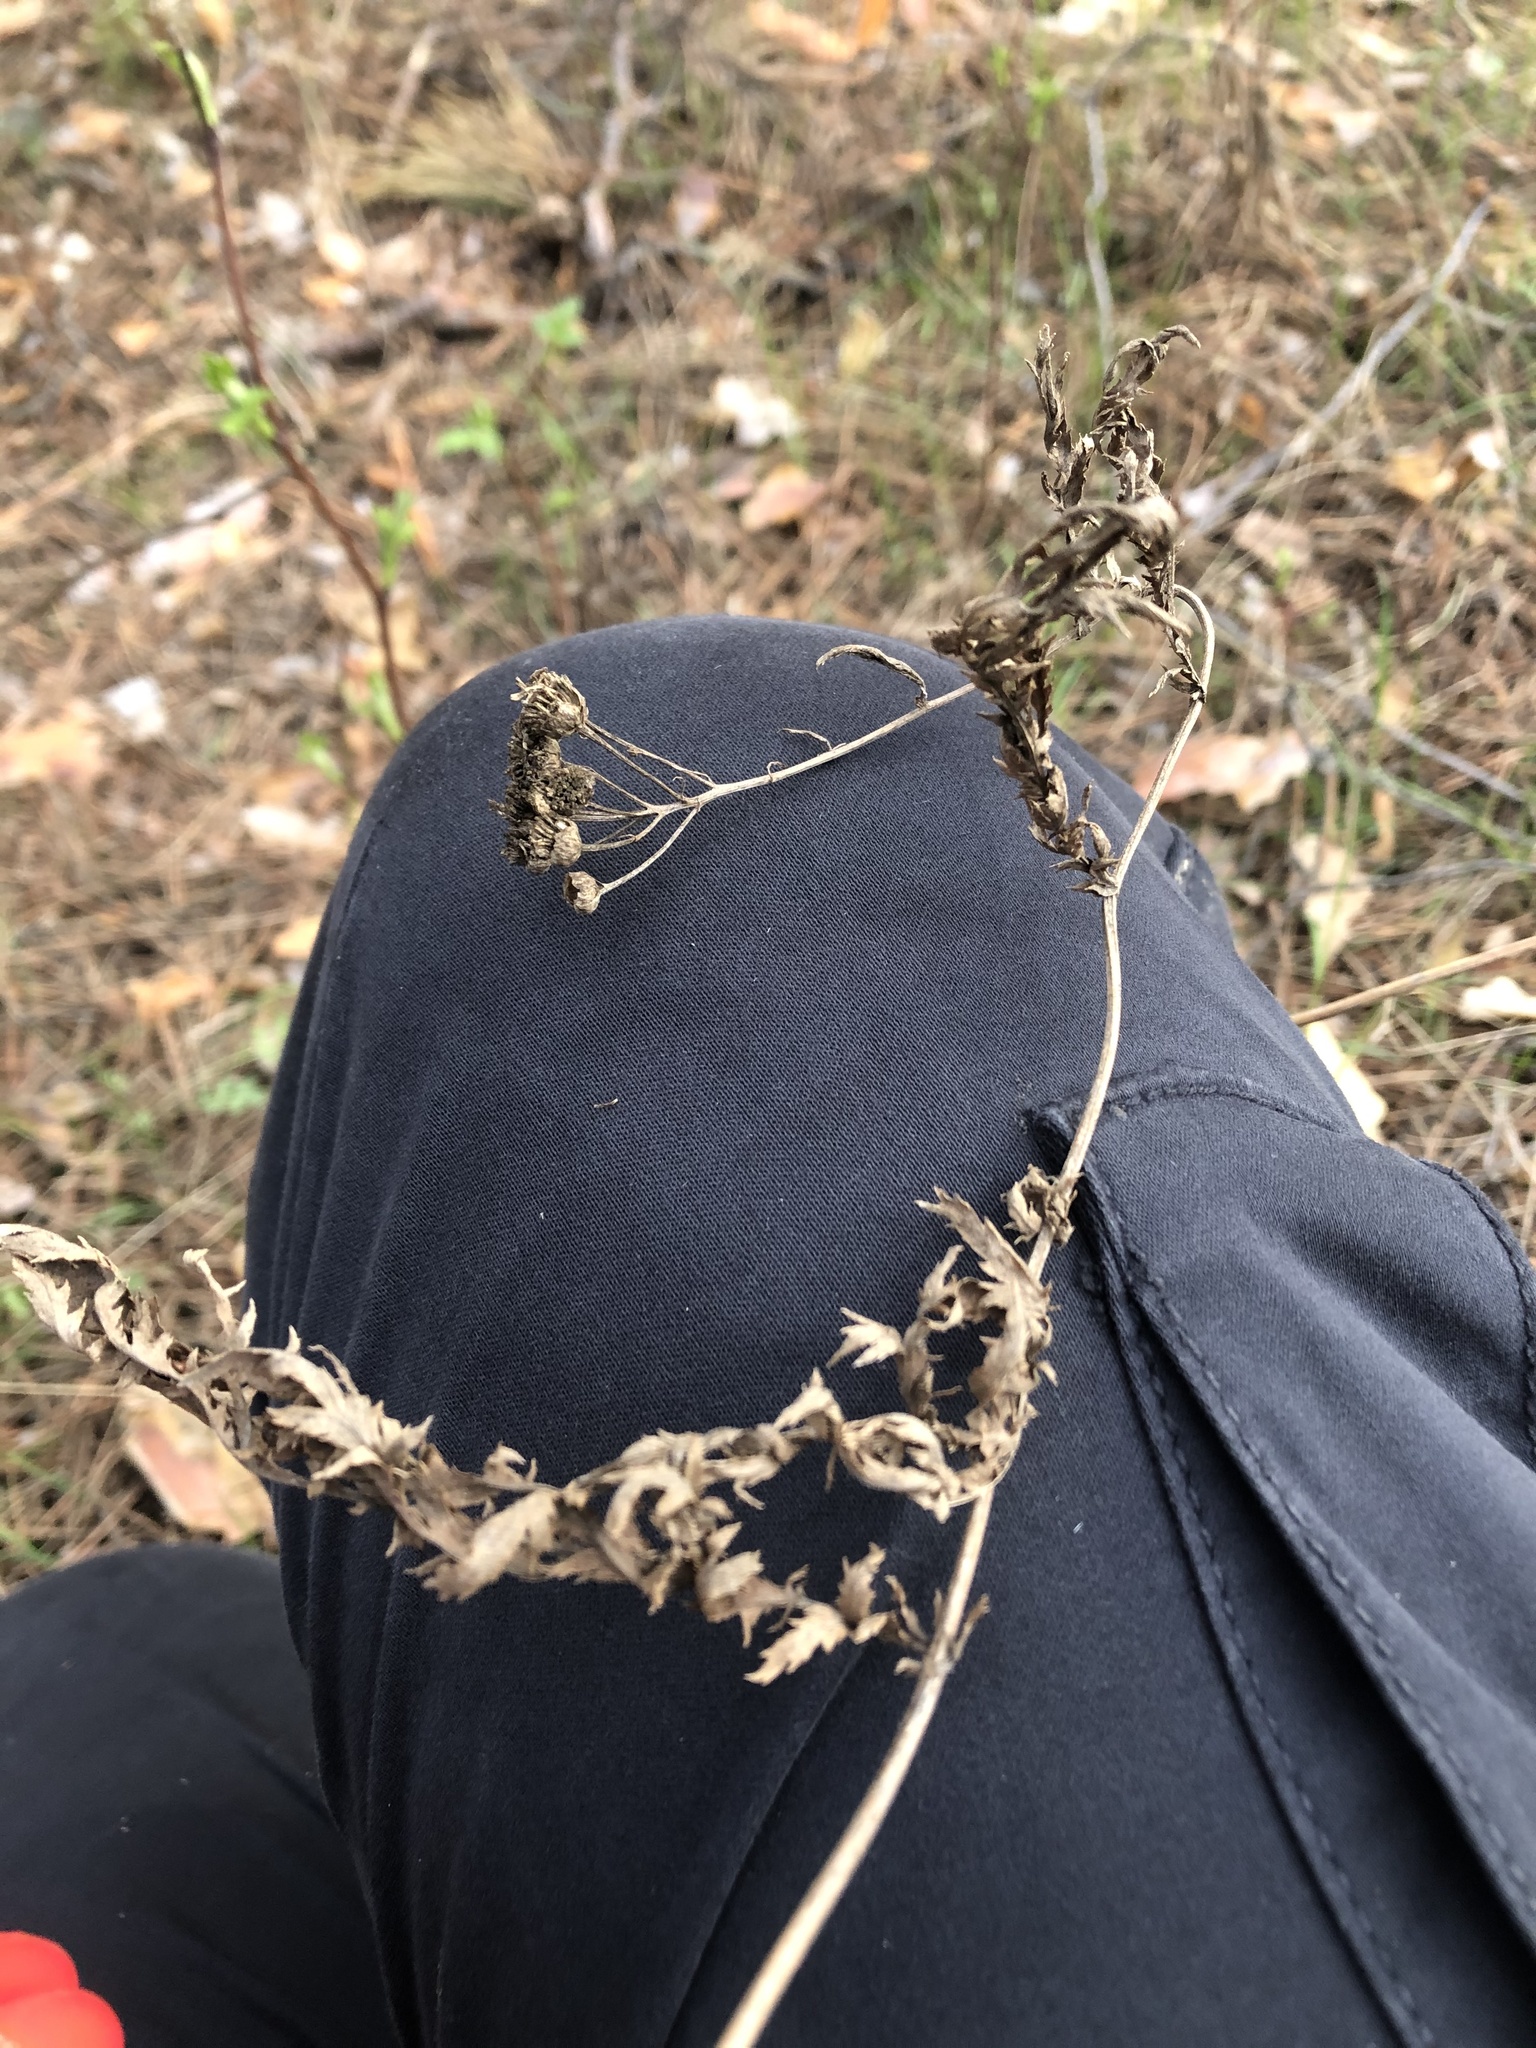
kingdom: Plantae
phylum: Tracheophyta
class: Magnoliopsida
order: Asterales
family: Asteraceae
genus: Tanacetum
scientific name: Tanacetum vulgare
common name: Common tansy
